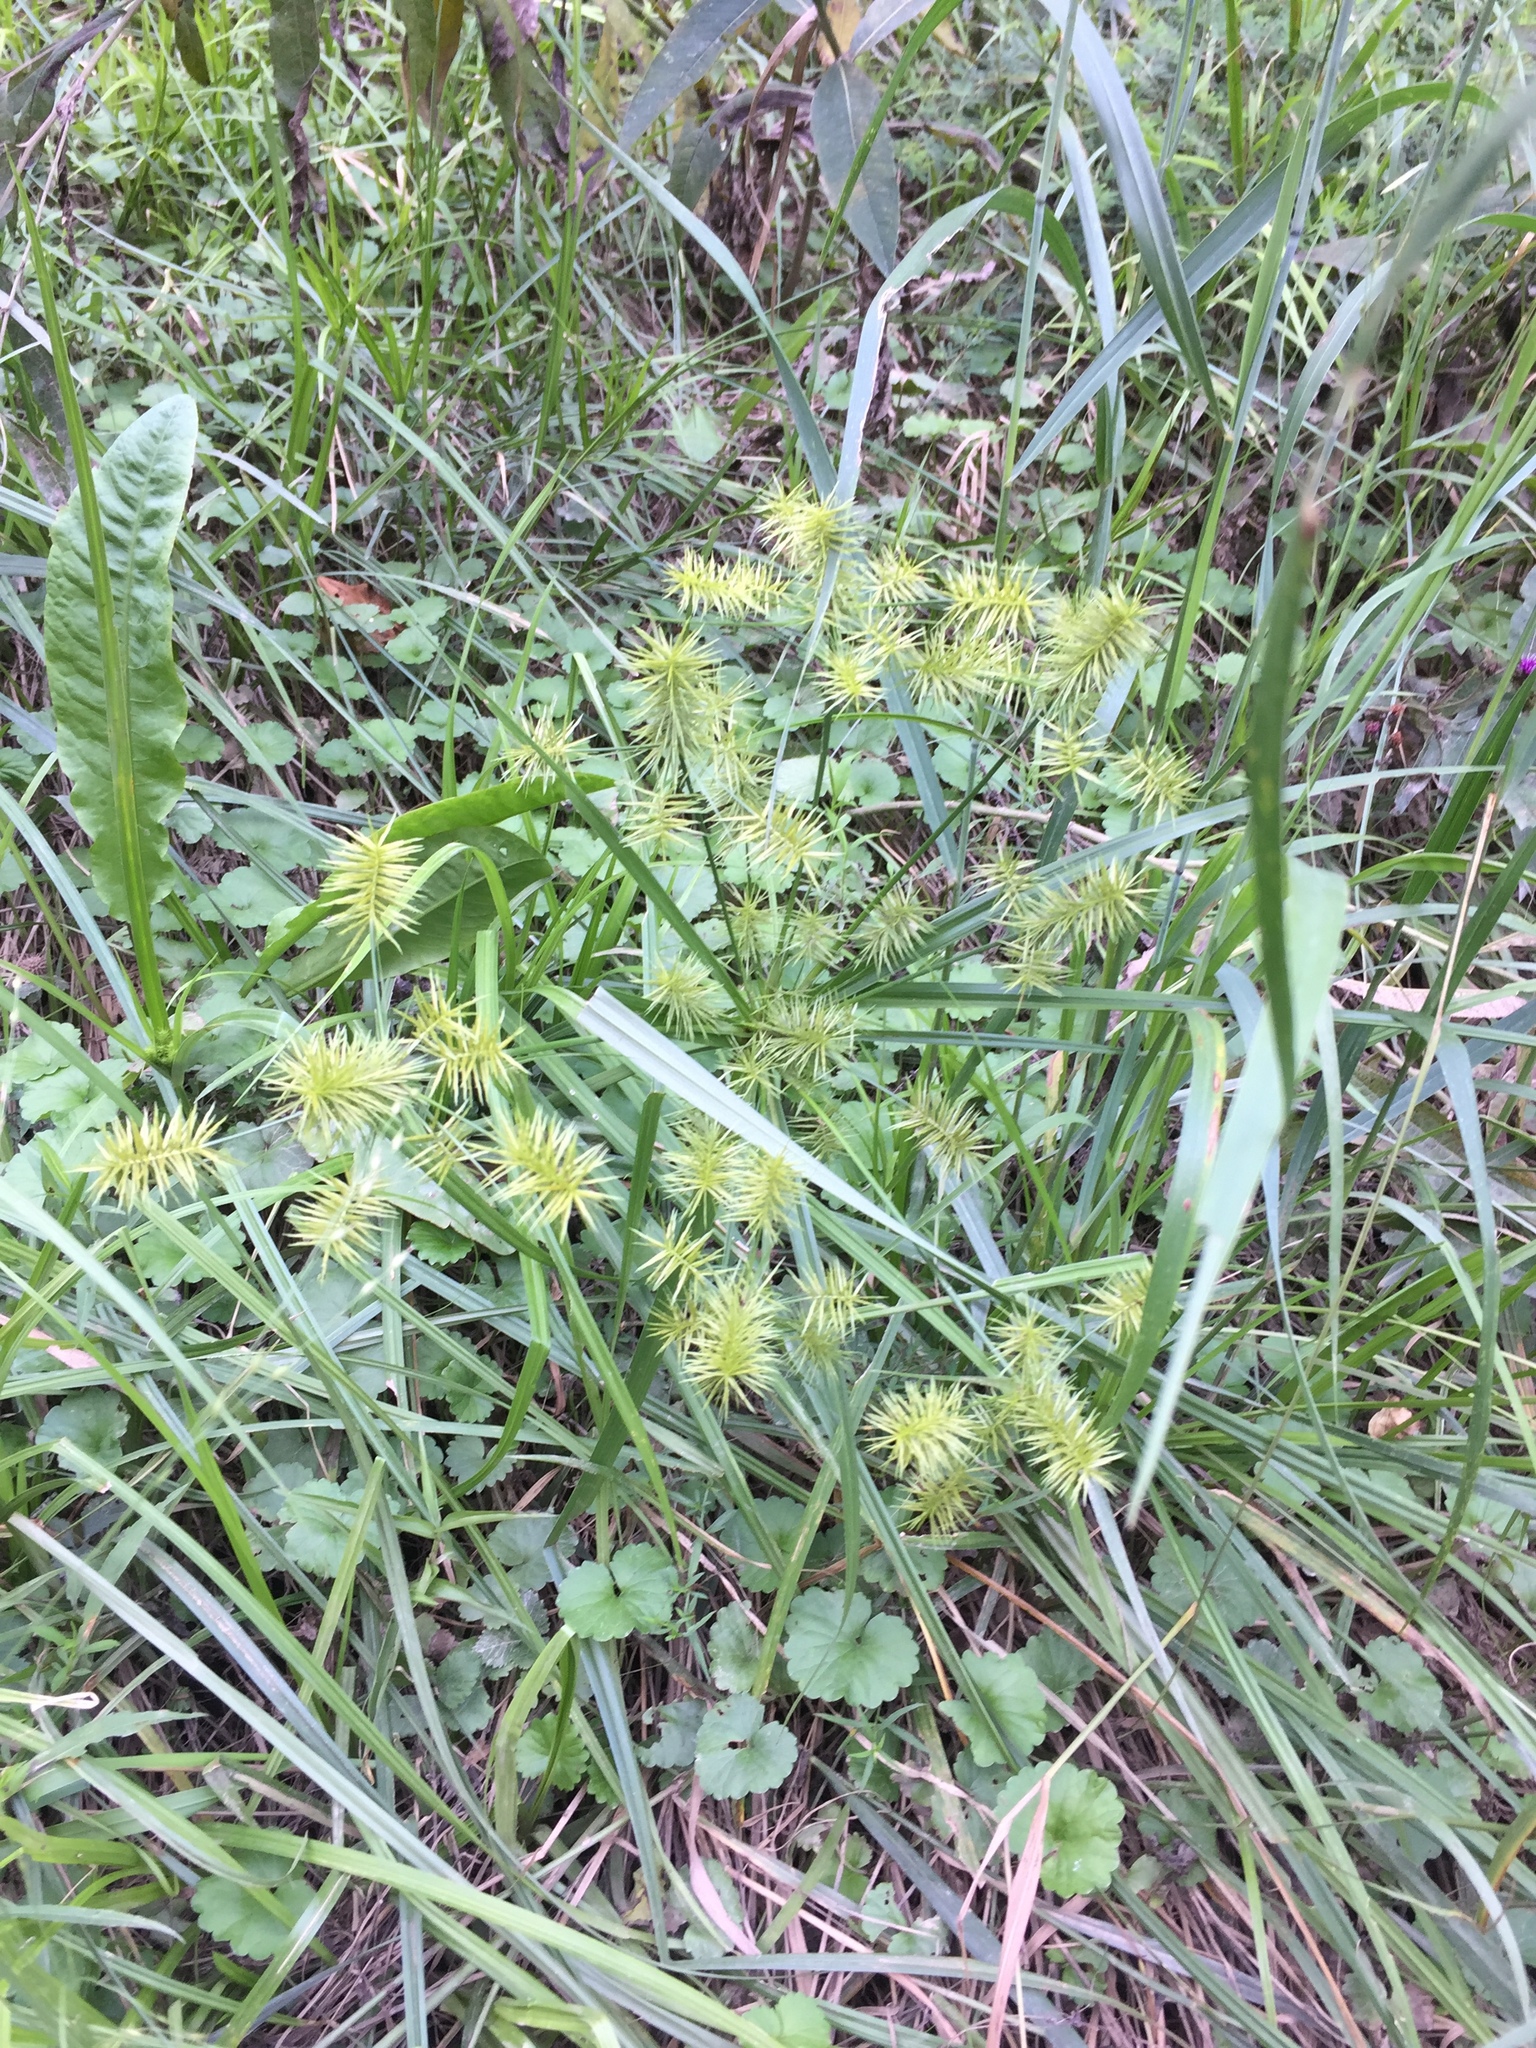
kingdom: Plantae
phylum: Tracheophyta
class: Liliopsida
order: Poales
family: Cyperaceae
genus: Cyperus
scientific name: Cyperus strigosus
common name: False nutsedge
